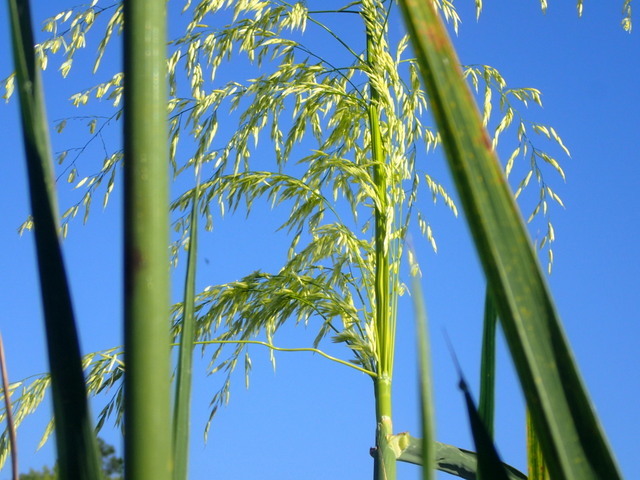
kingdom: Plantae
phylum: Tracheophyta
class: Liliopsida
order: Poales
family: Poaceae
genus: Zizania
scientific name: Zizania aquatica
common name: Annual wildrice
